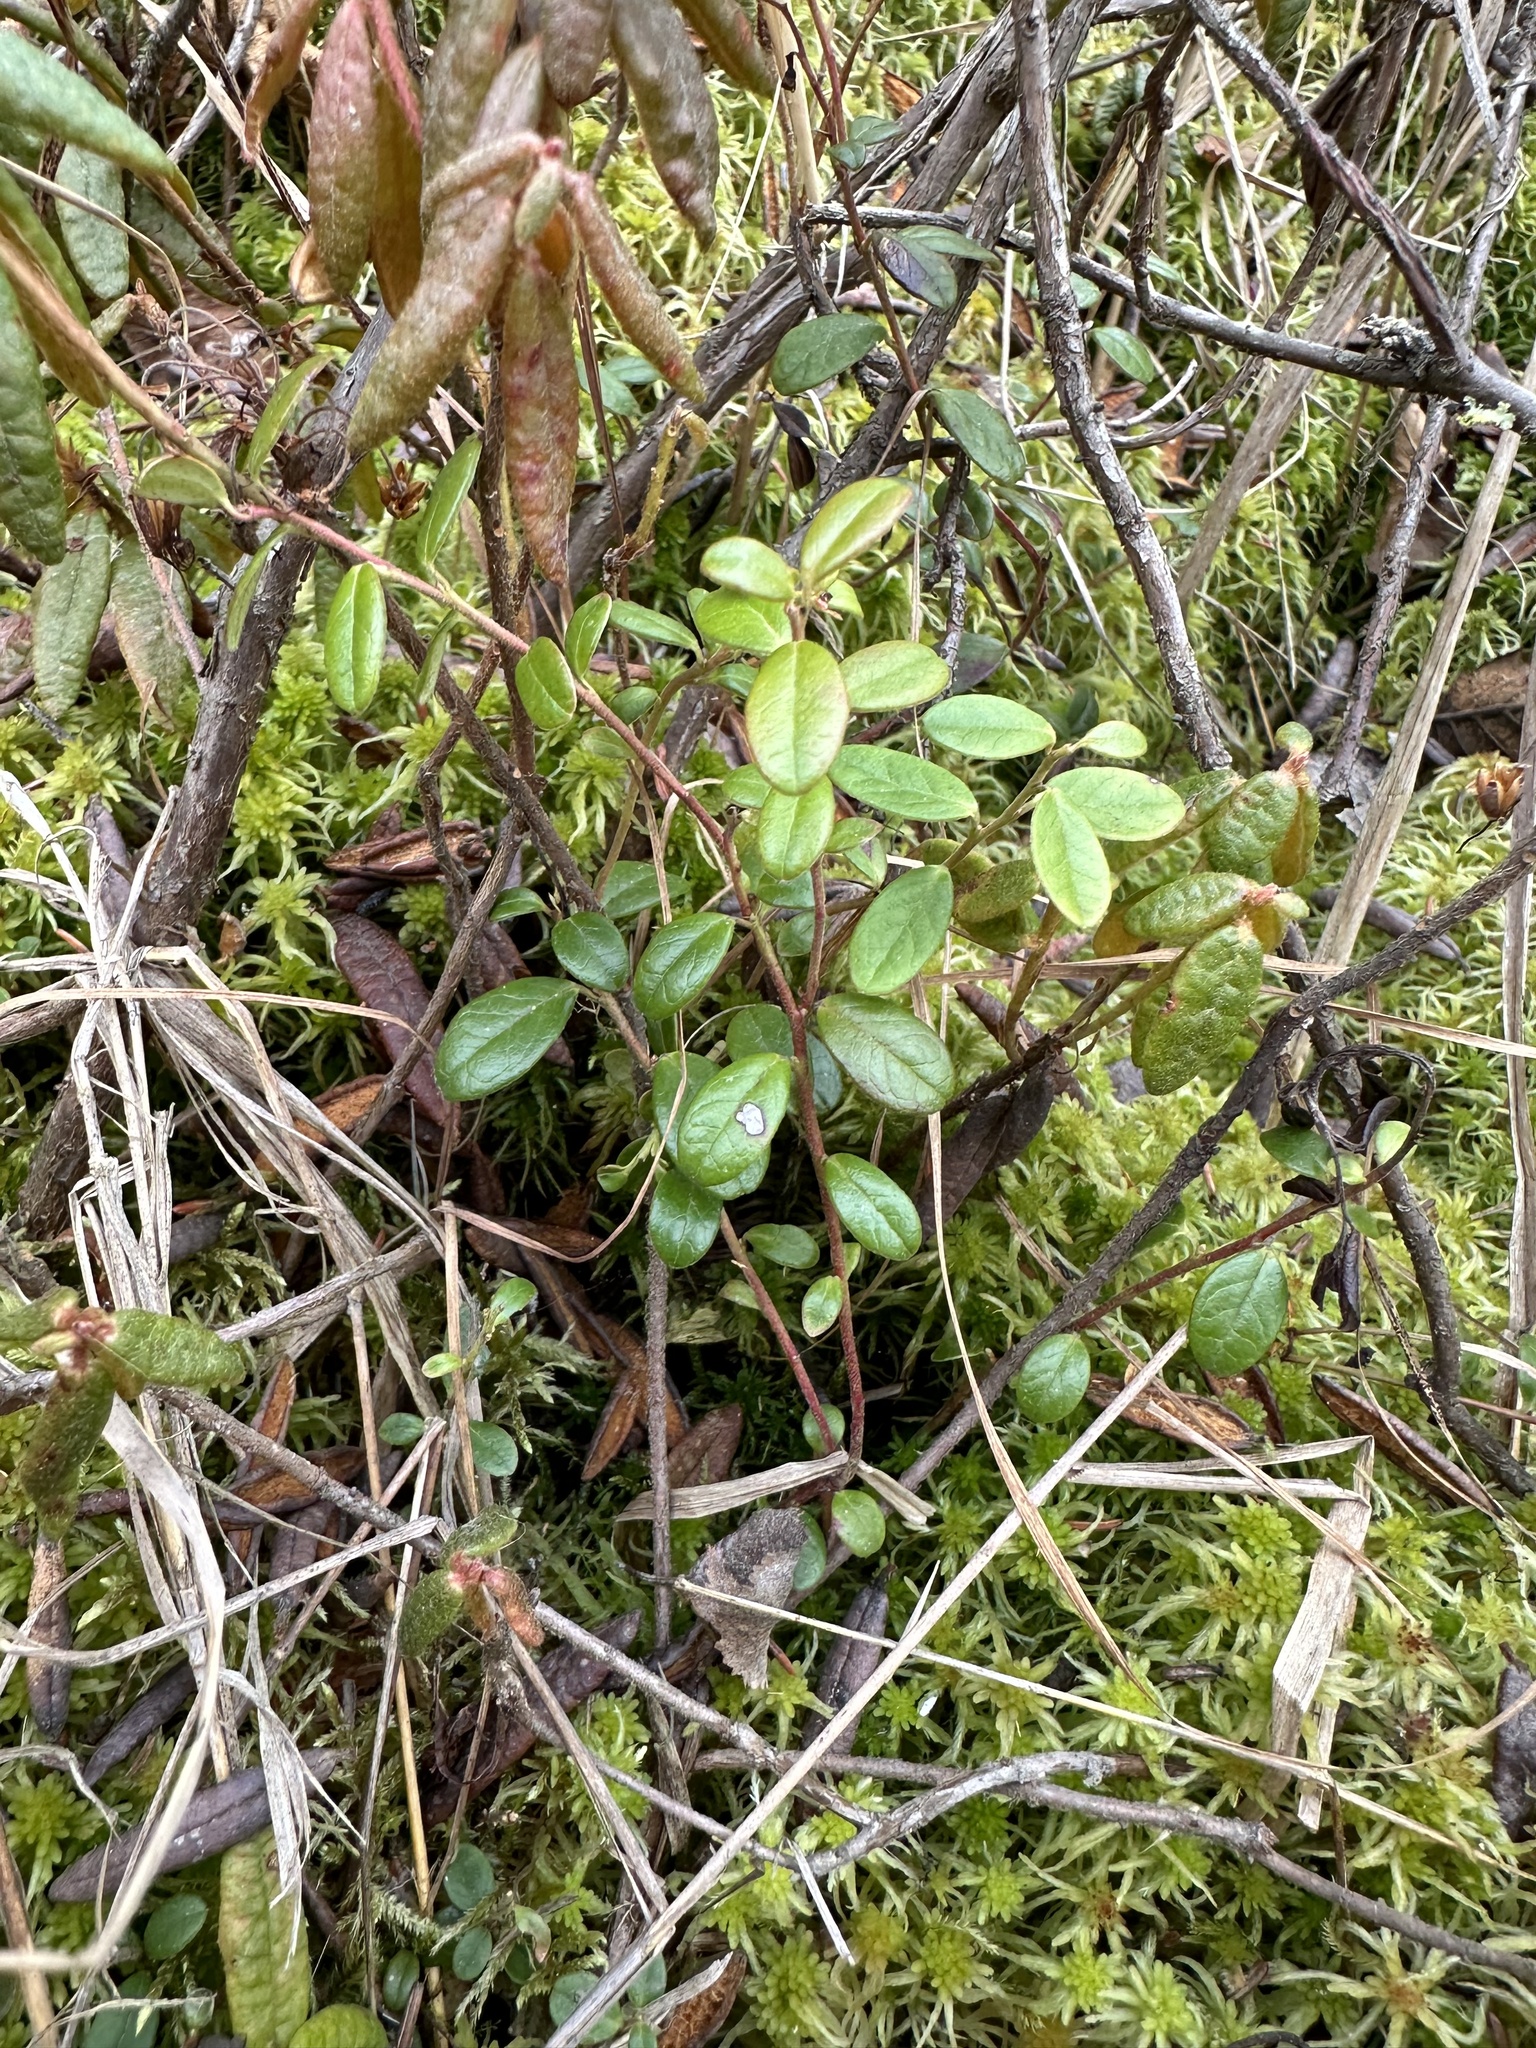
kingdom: Plantae
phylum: Tracheophyta
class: Magnoliopsida
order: Ericales
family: Ericaceae
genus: Vaccinium
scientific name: Vaccinium vitis-idaea
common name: Cowberry
